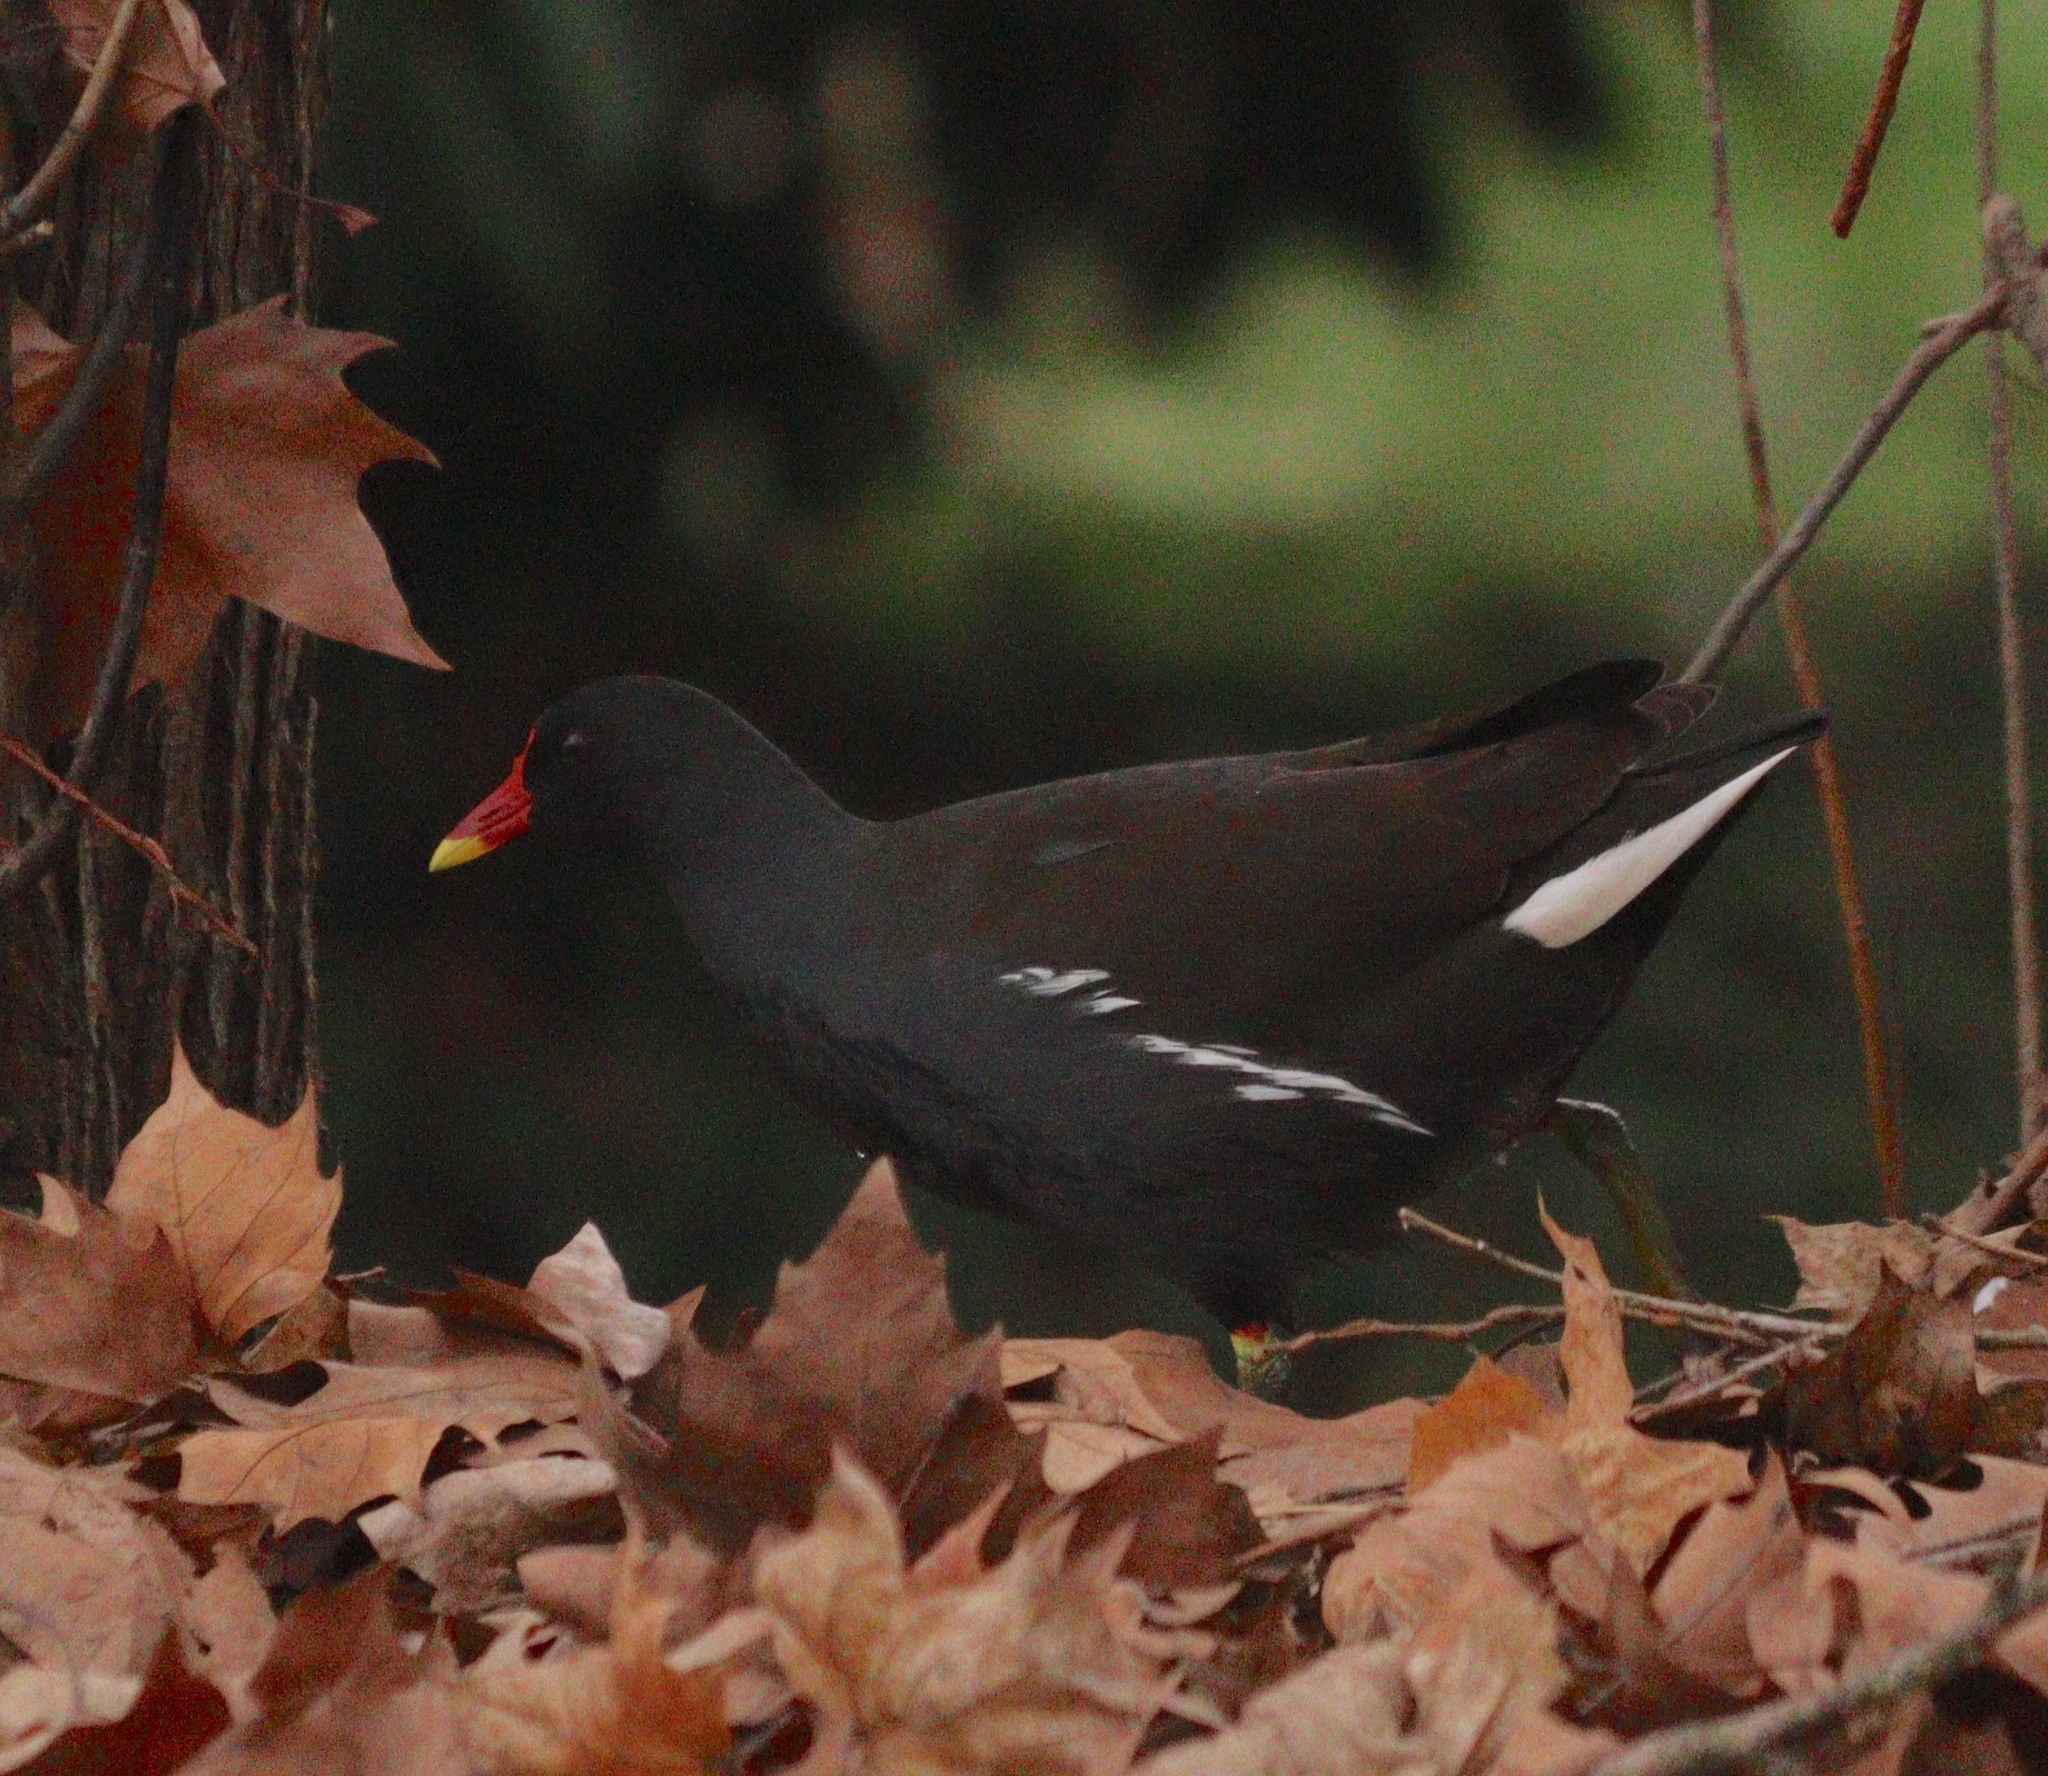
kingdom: Animalia
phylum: Chordata
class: Aves
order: Gruiformes
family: Rallidae
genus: Gallinula
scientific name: Gallinula chloropus
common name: Common moorhen
